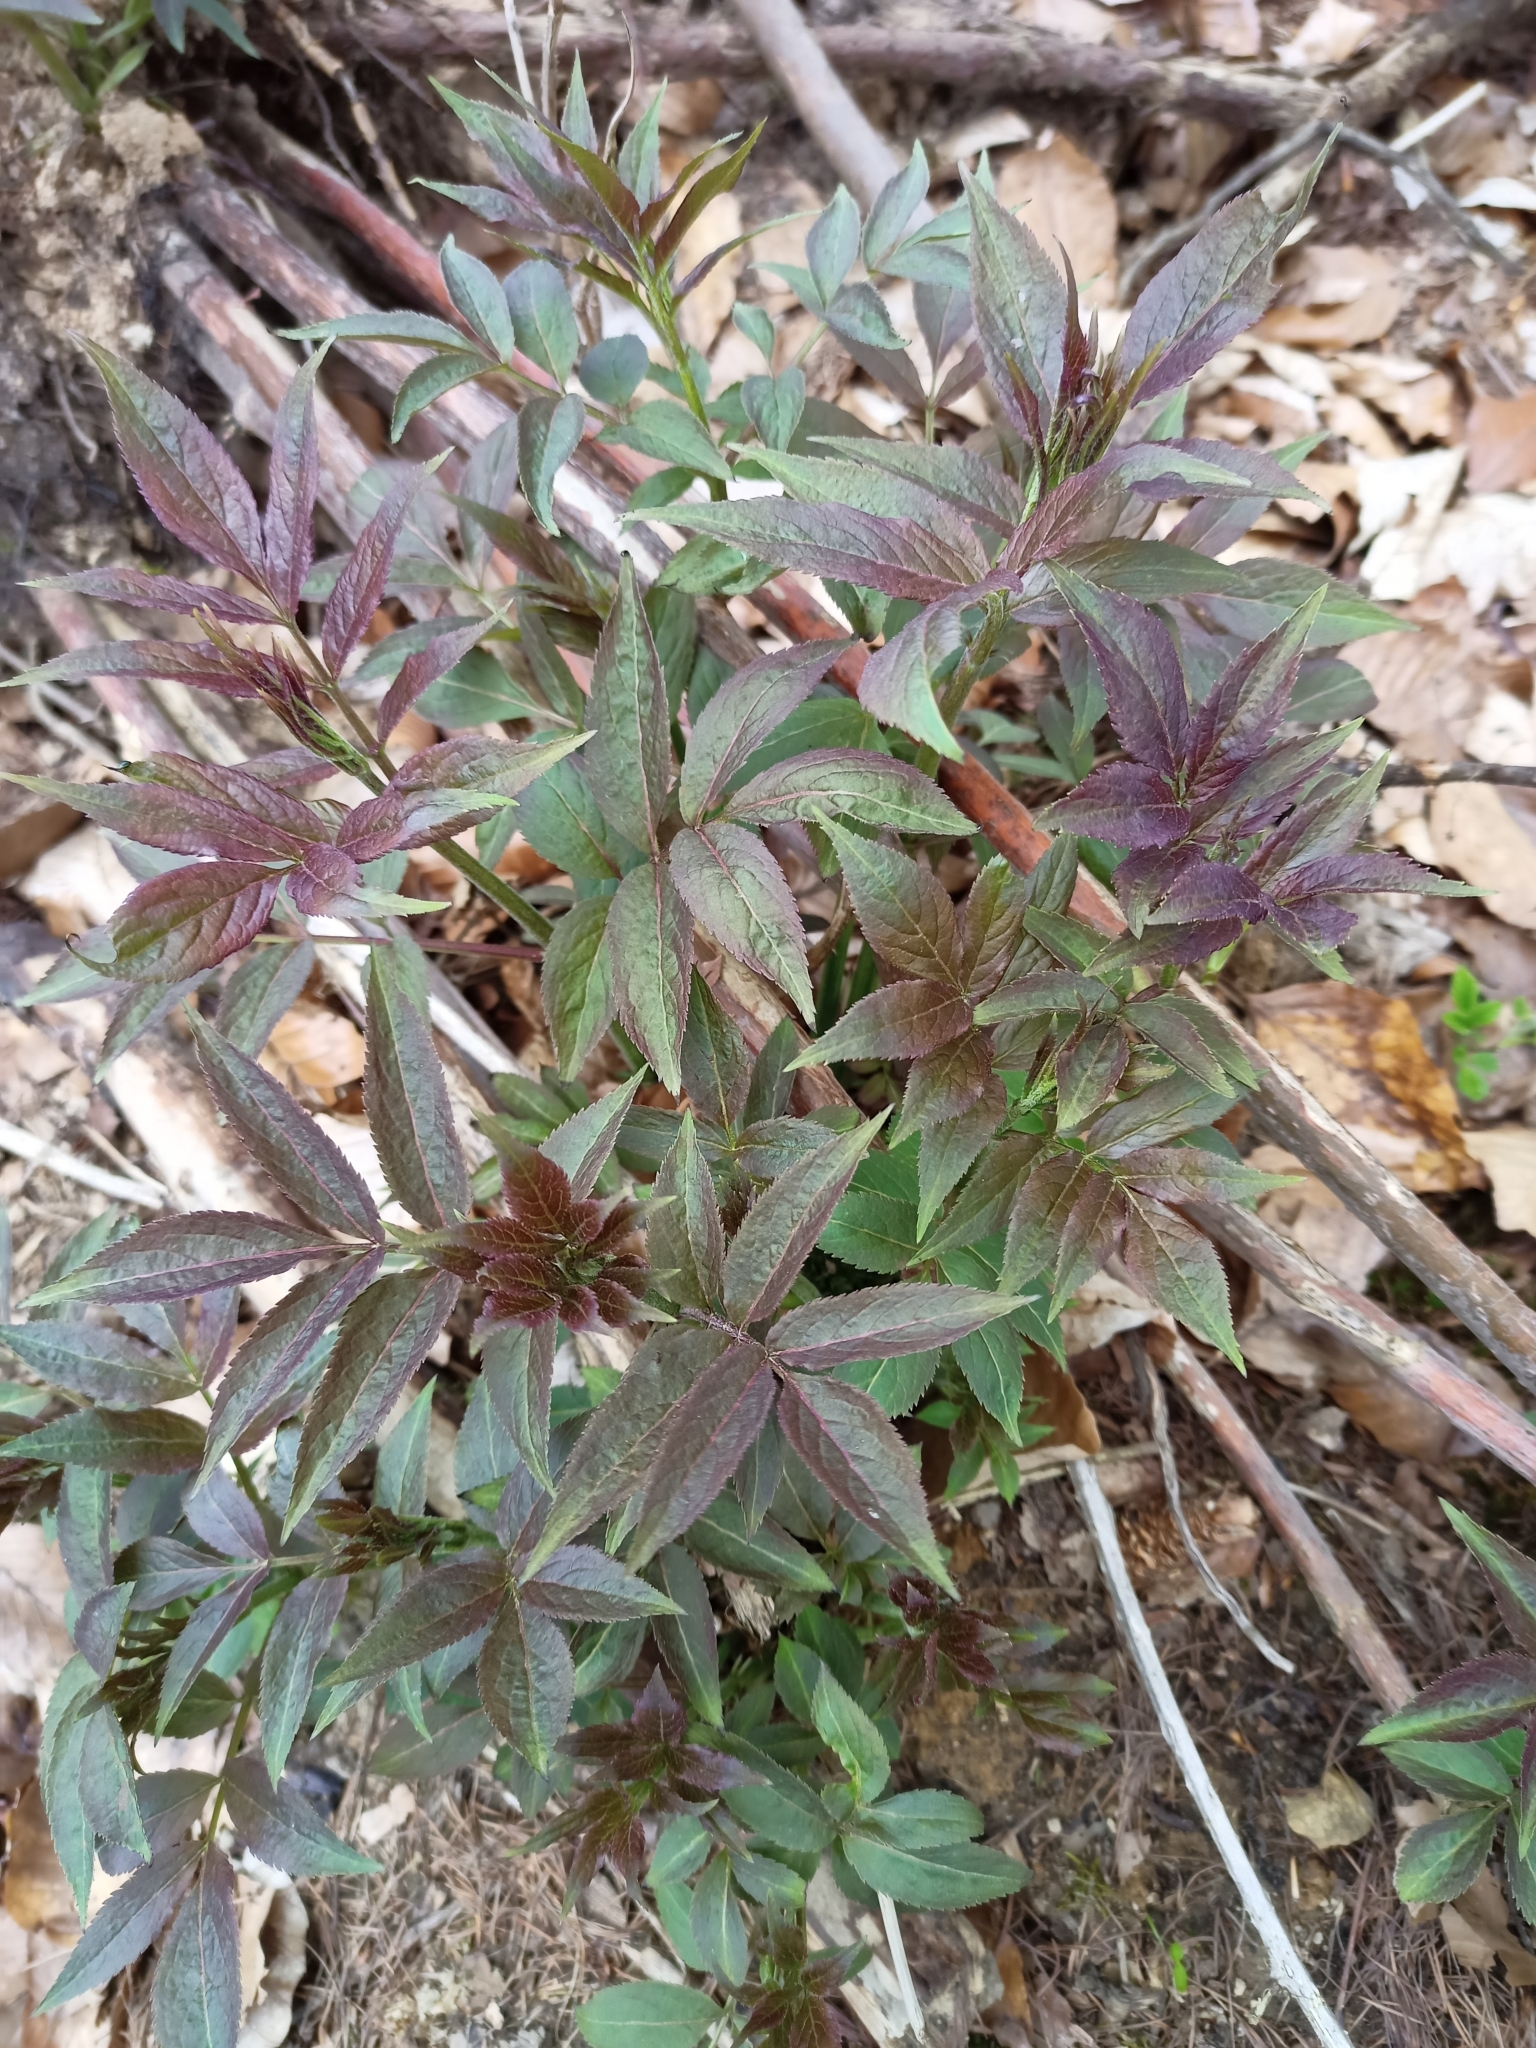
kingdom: Plantae
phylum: Tracheophyta
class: Magnoliopsida
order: Dipsacales
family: Viburnaceae
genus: Sambucus
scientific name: Sambucus racemosa
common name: Red-berried elder
